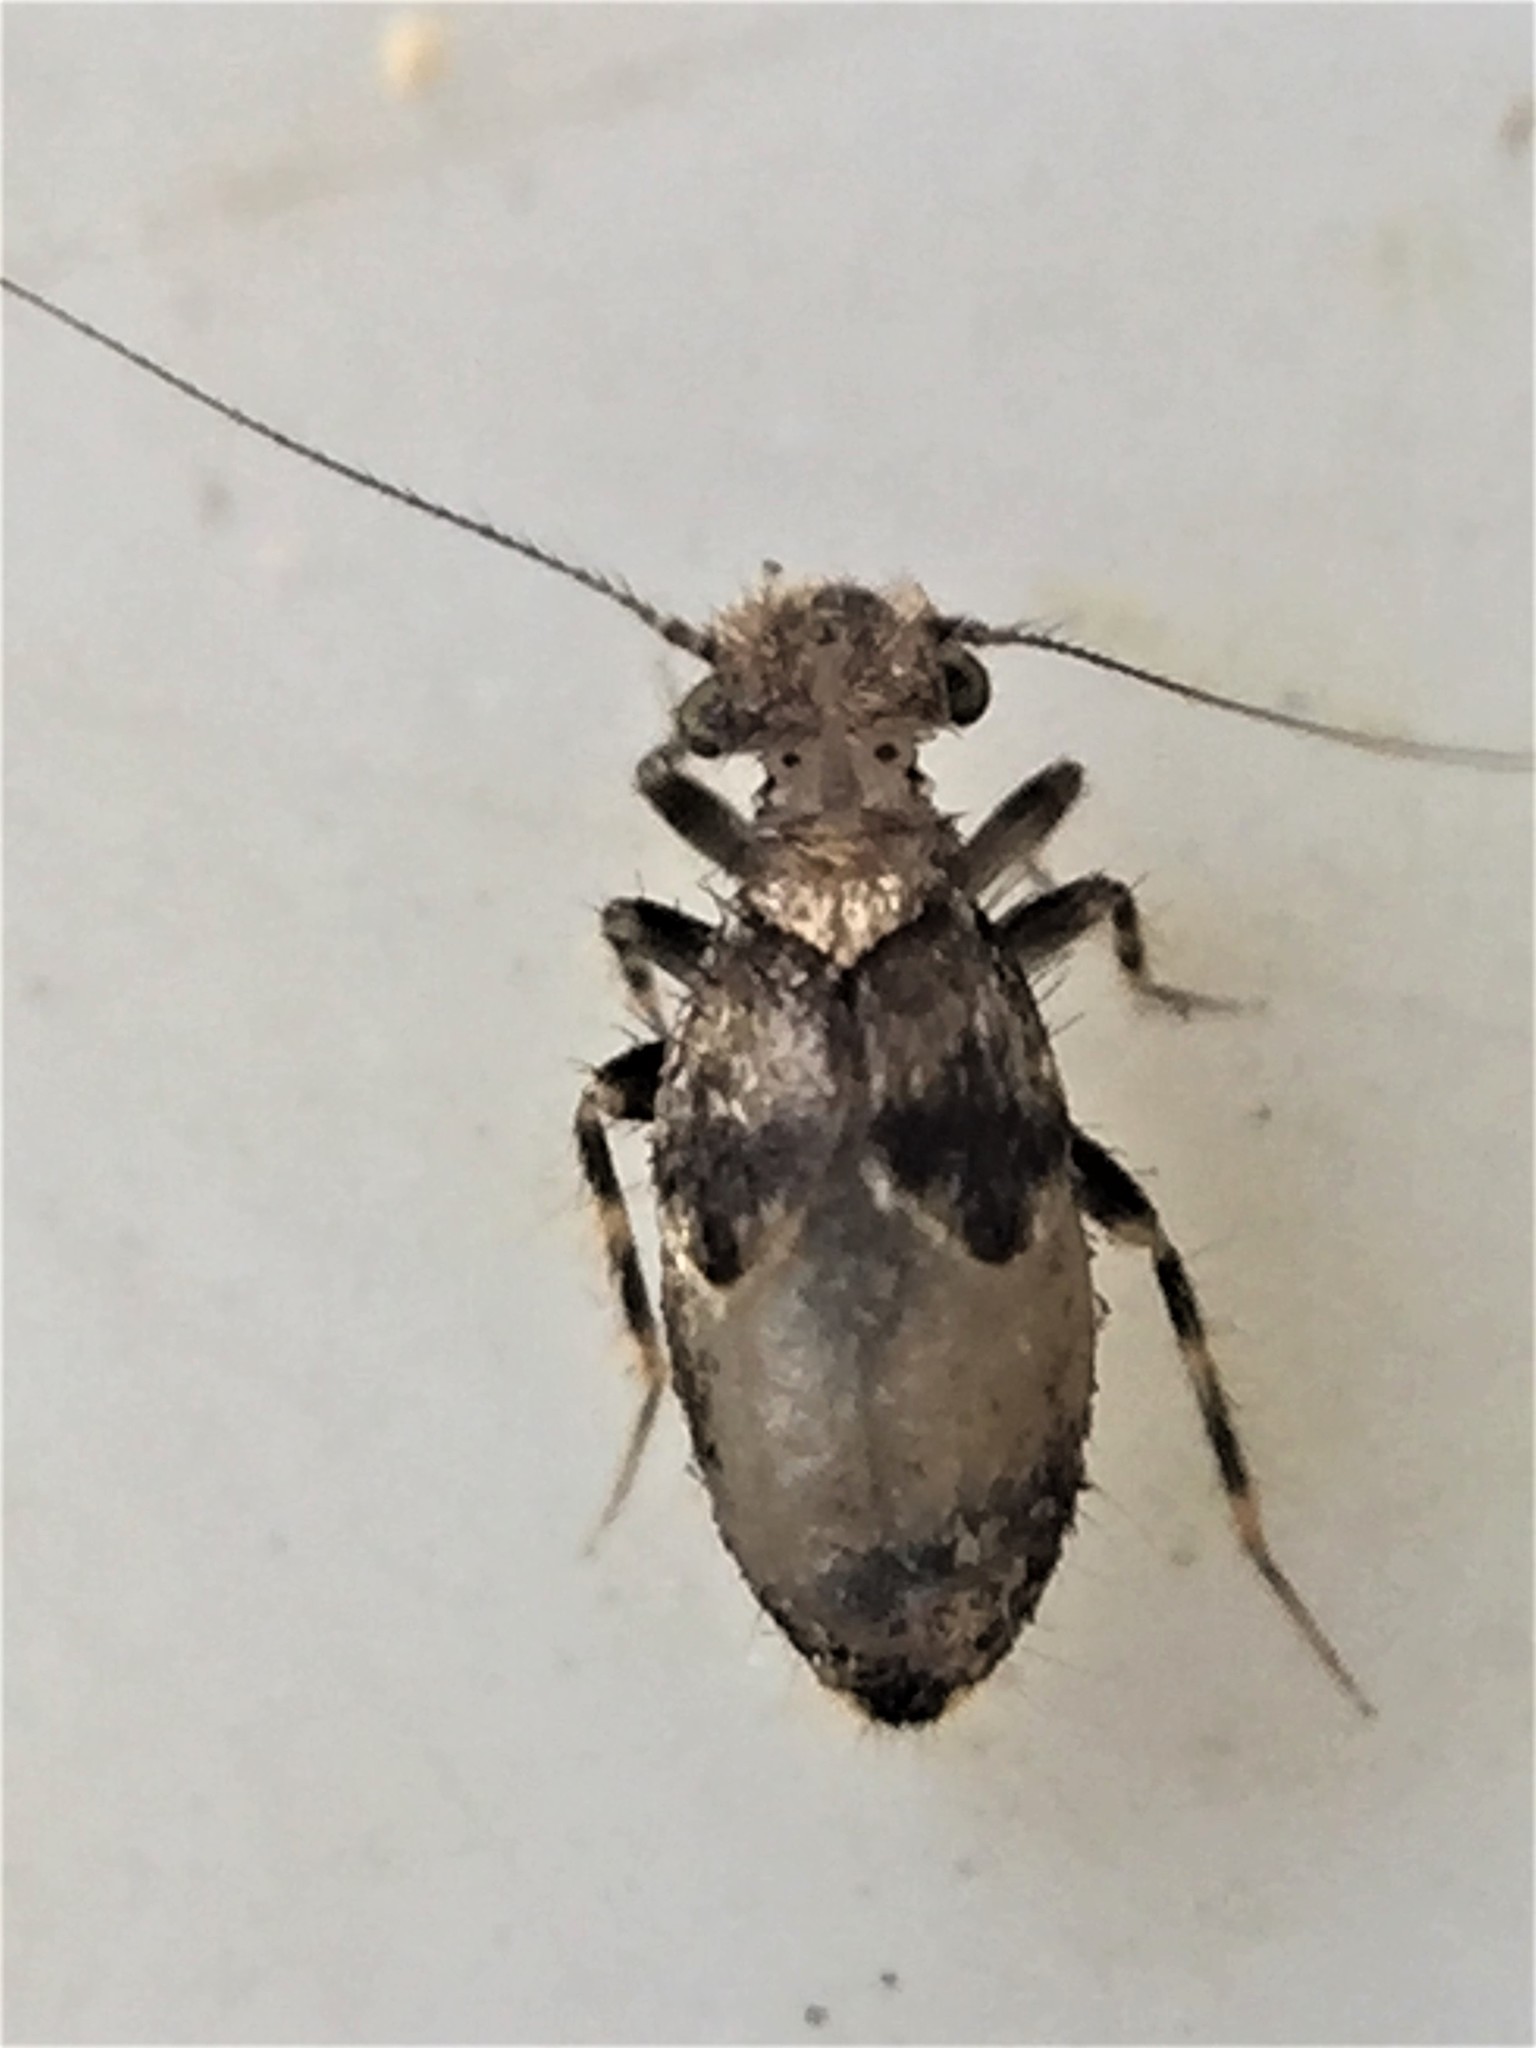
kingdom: Animalia
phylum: Arthropoda
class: Insecta
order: Psocodea
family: Lepidopsocidae
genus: Pteroxanium
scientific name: Pteroxanium kelloggi
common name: Bark lice
